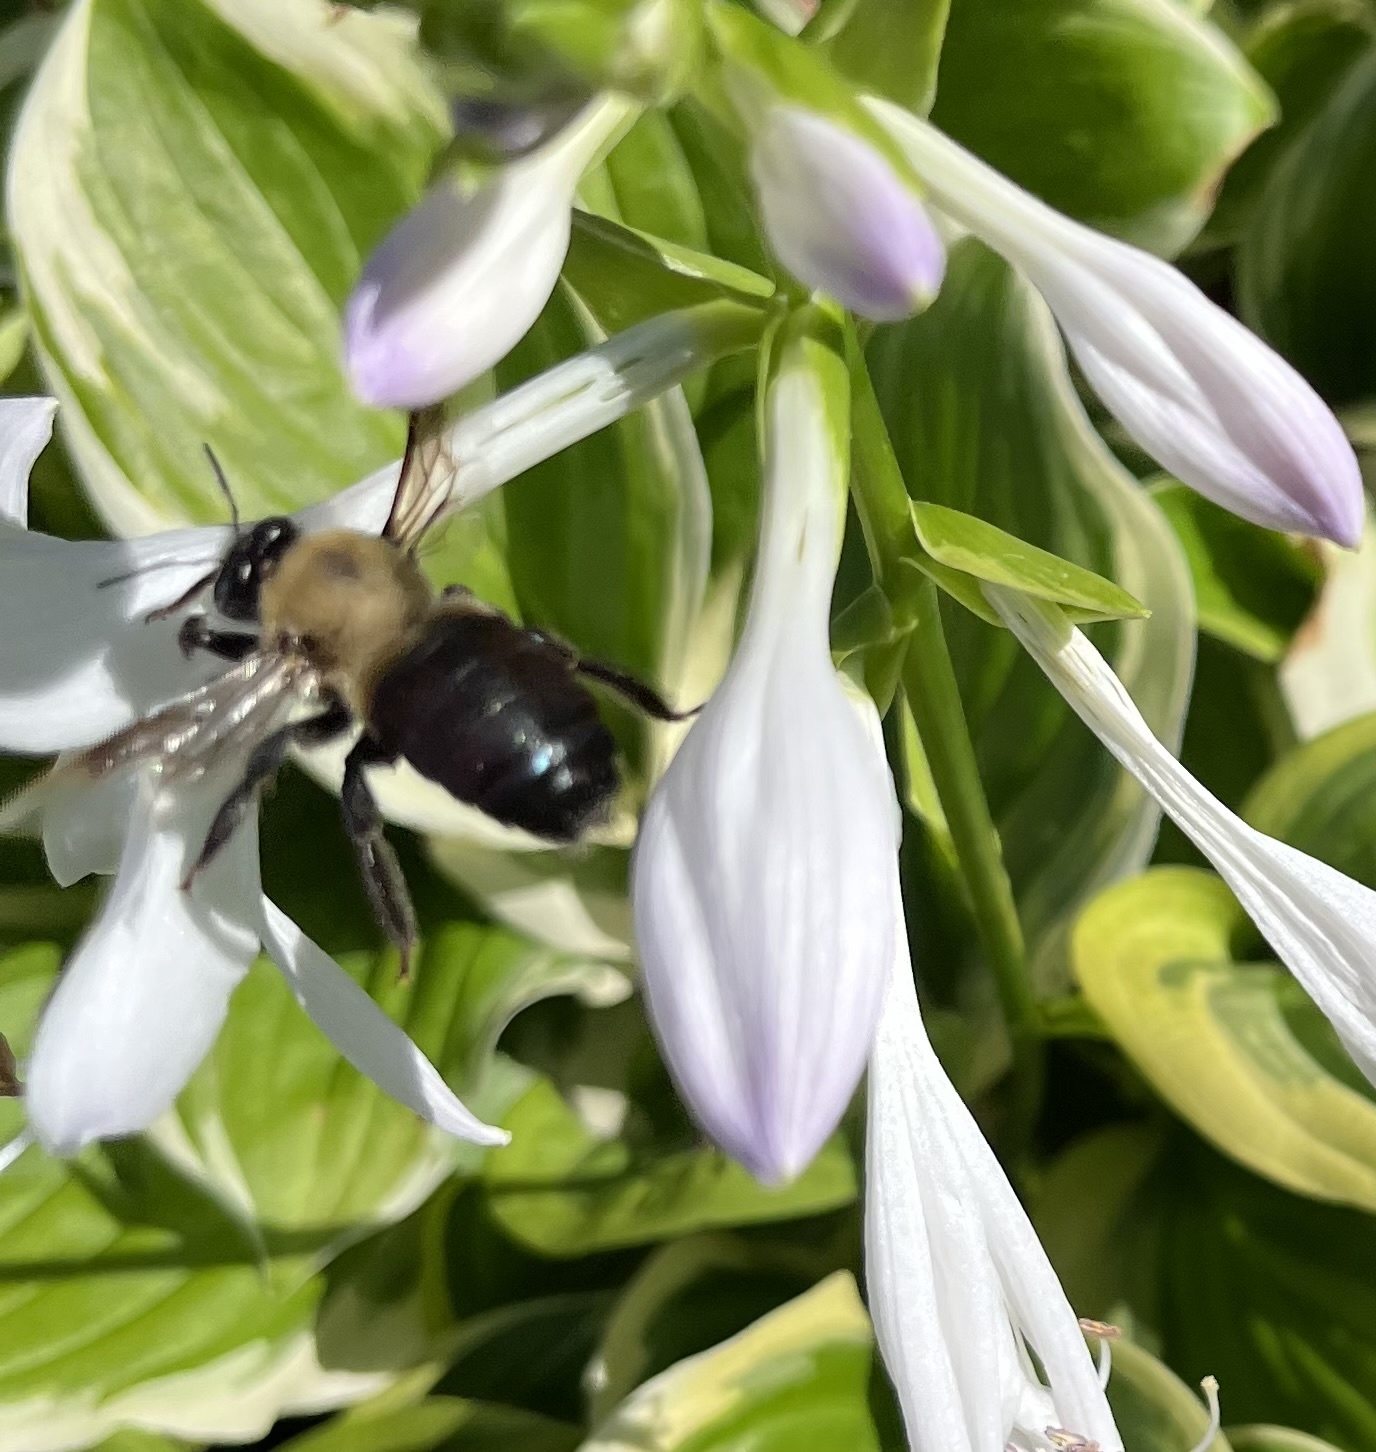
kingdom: Animalia
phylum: Arthropoda
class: Insecta
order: Hymenoptera
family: Apidae
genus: Xylocopa
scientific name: Xylocopa virginica
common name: Carpenter bee
